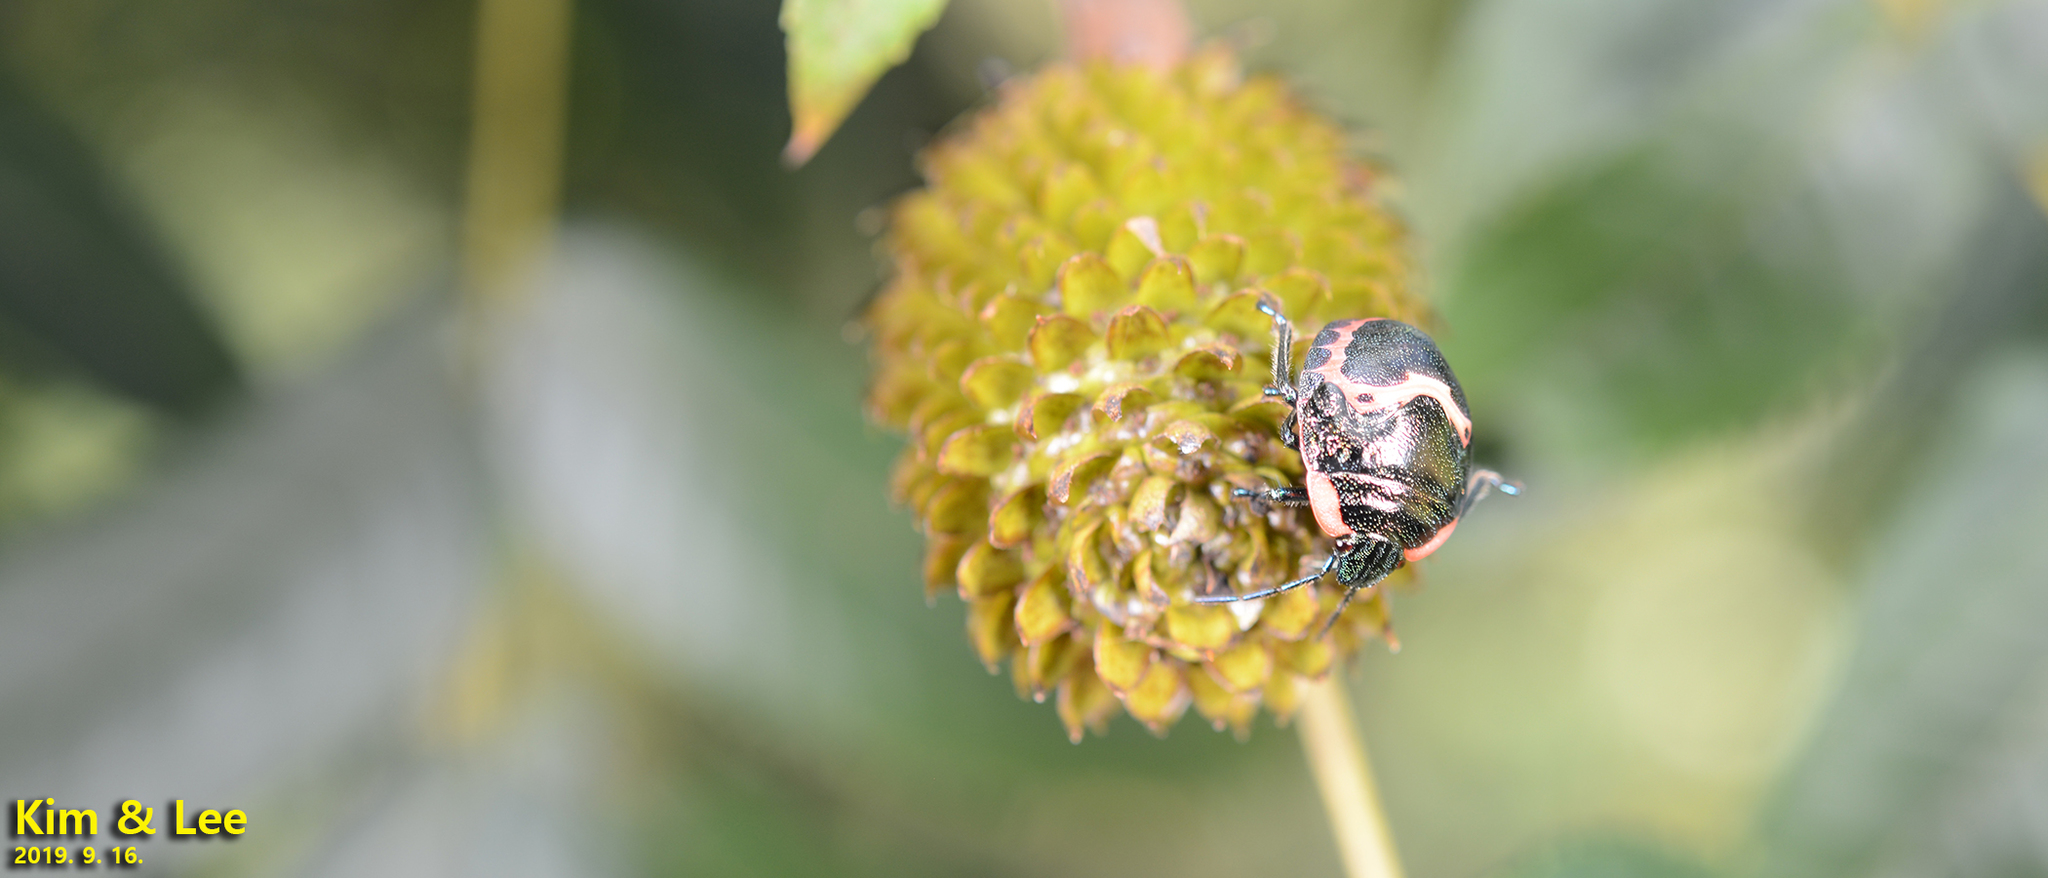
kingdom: Animalia
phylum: Arthropoda
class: Insecta
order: Hemiptera
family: Scutelleridae
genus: Poecilocoris
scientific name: Poecilocoris lewisi
